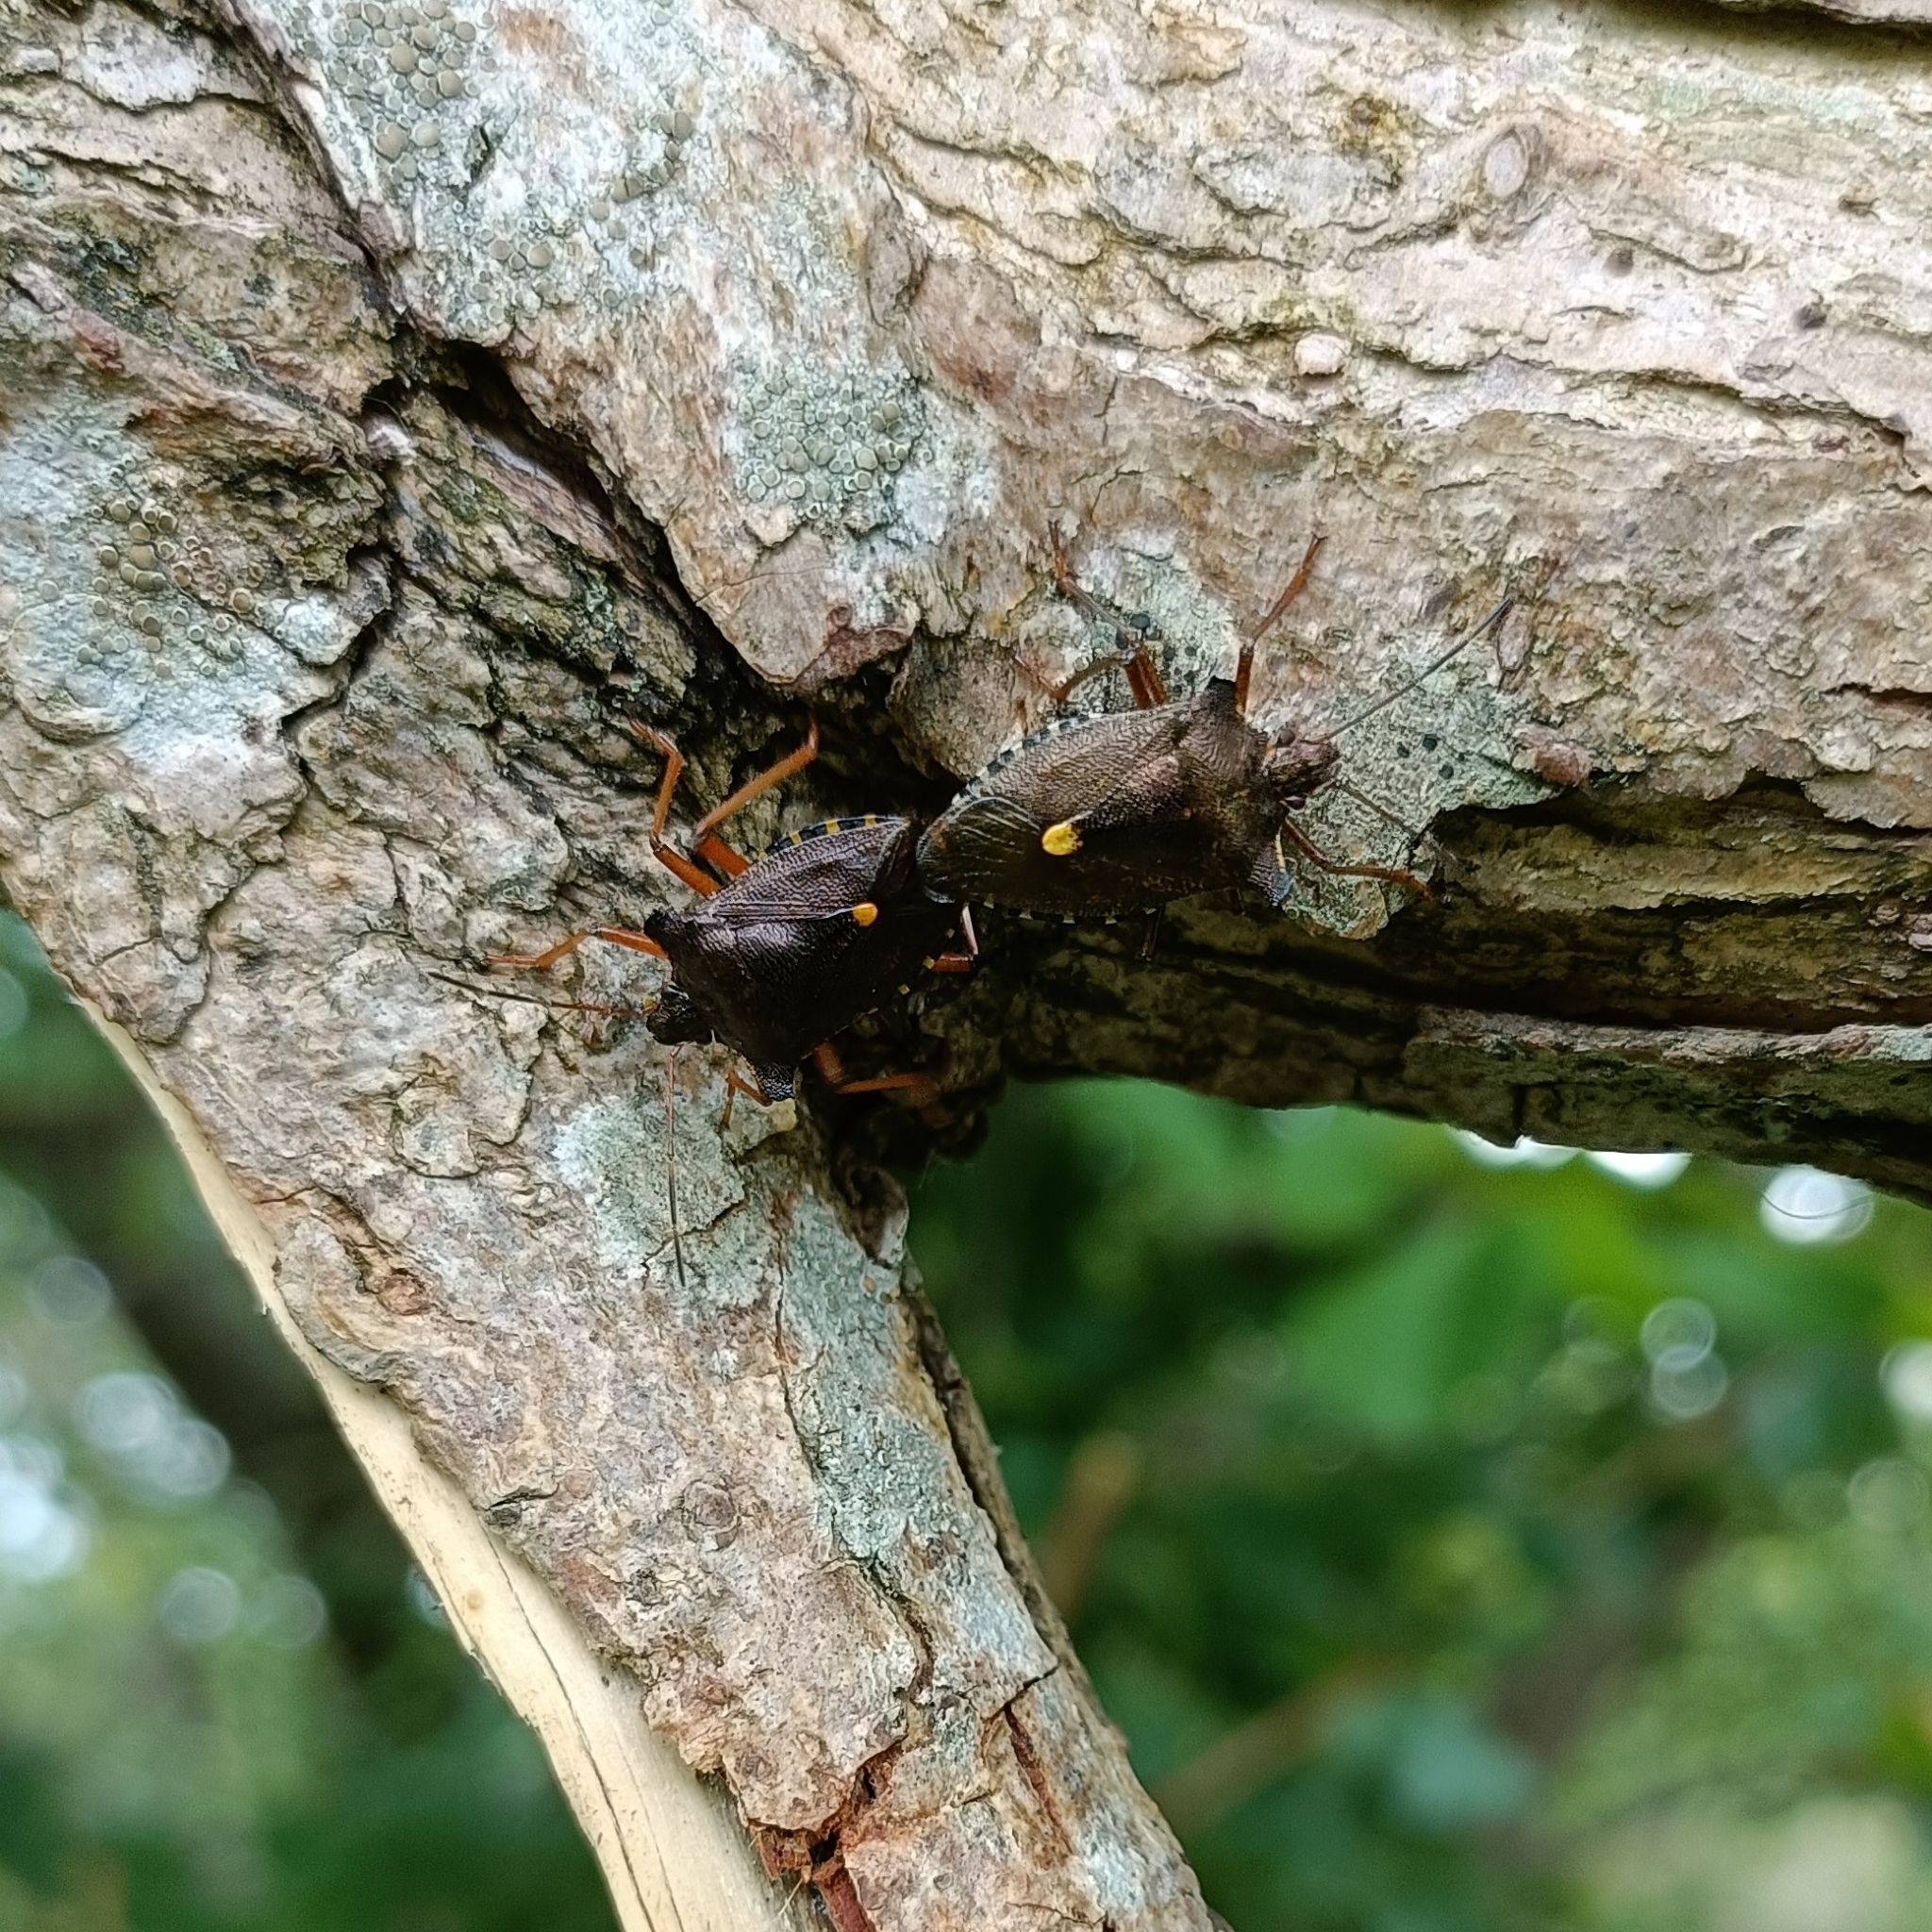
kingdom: Animalia
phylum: Arthropoda
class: Insecta
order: Hemiptera
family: Pentatomidae
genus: Pentatoma
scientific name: Pentatoma rufipes
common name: Forest bug
